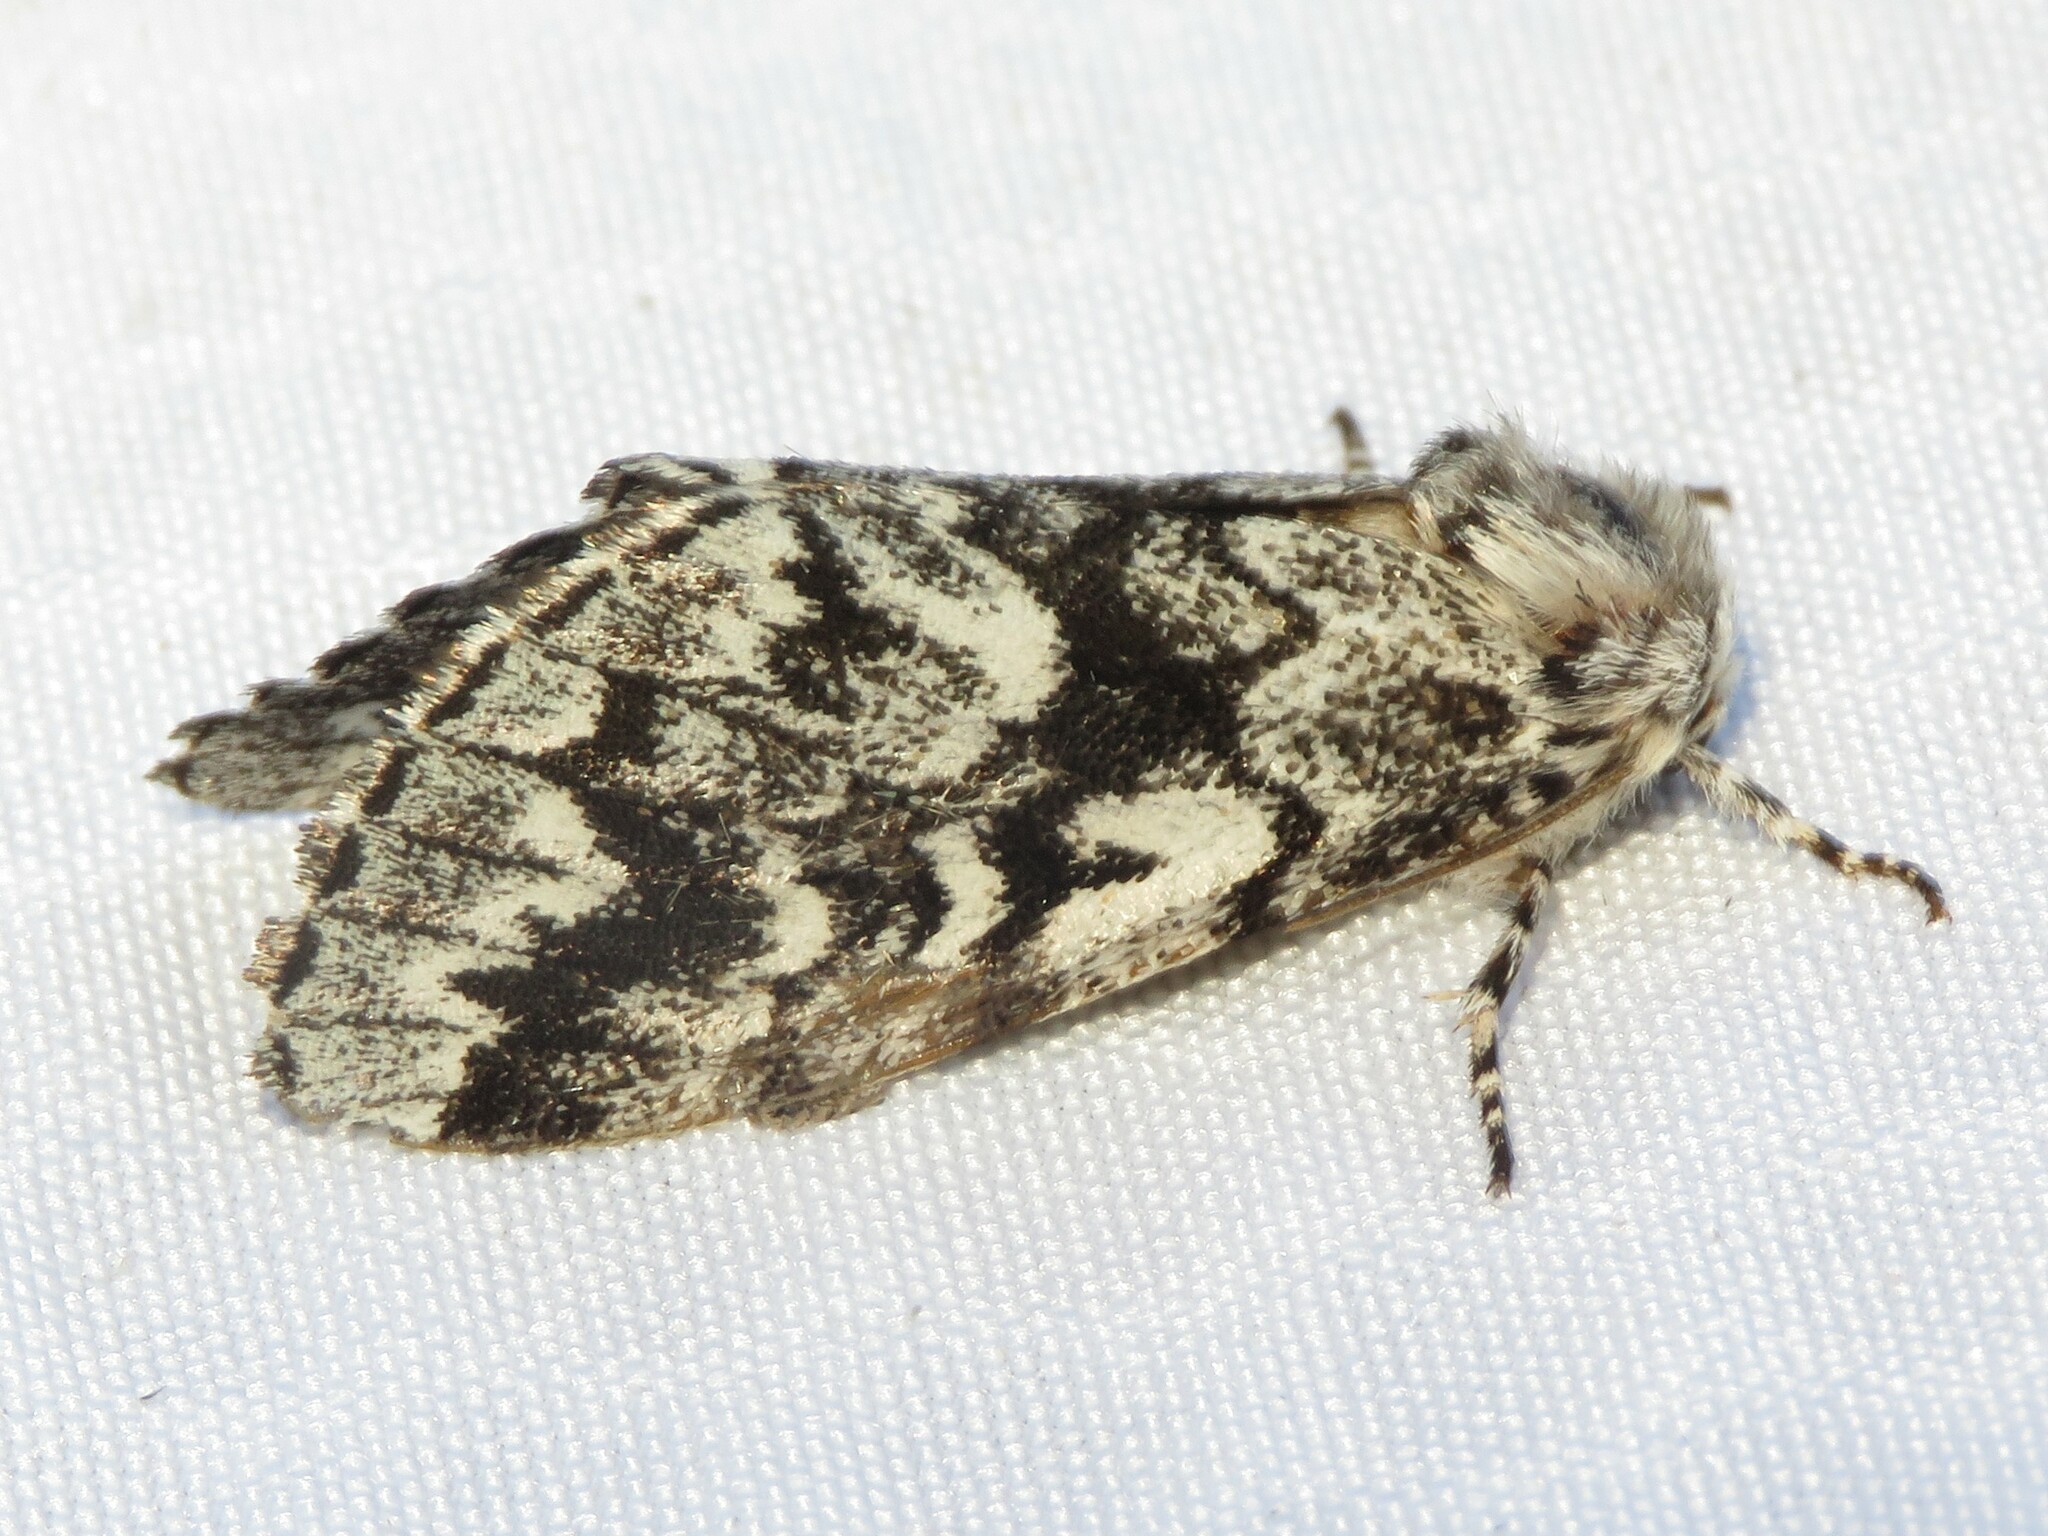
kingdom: Animalia
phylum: Arthropoda
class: Insecta
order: Lepidoptera
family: Noctuidae
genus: Panthea
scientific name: Panthea acronyctoides
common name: Black zigzag moth
